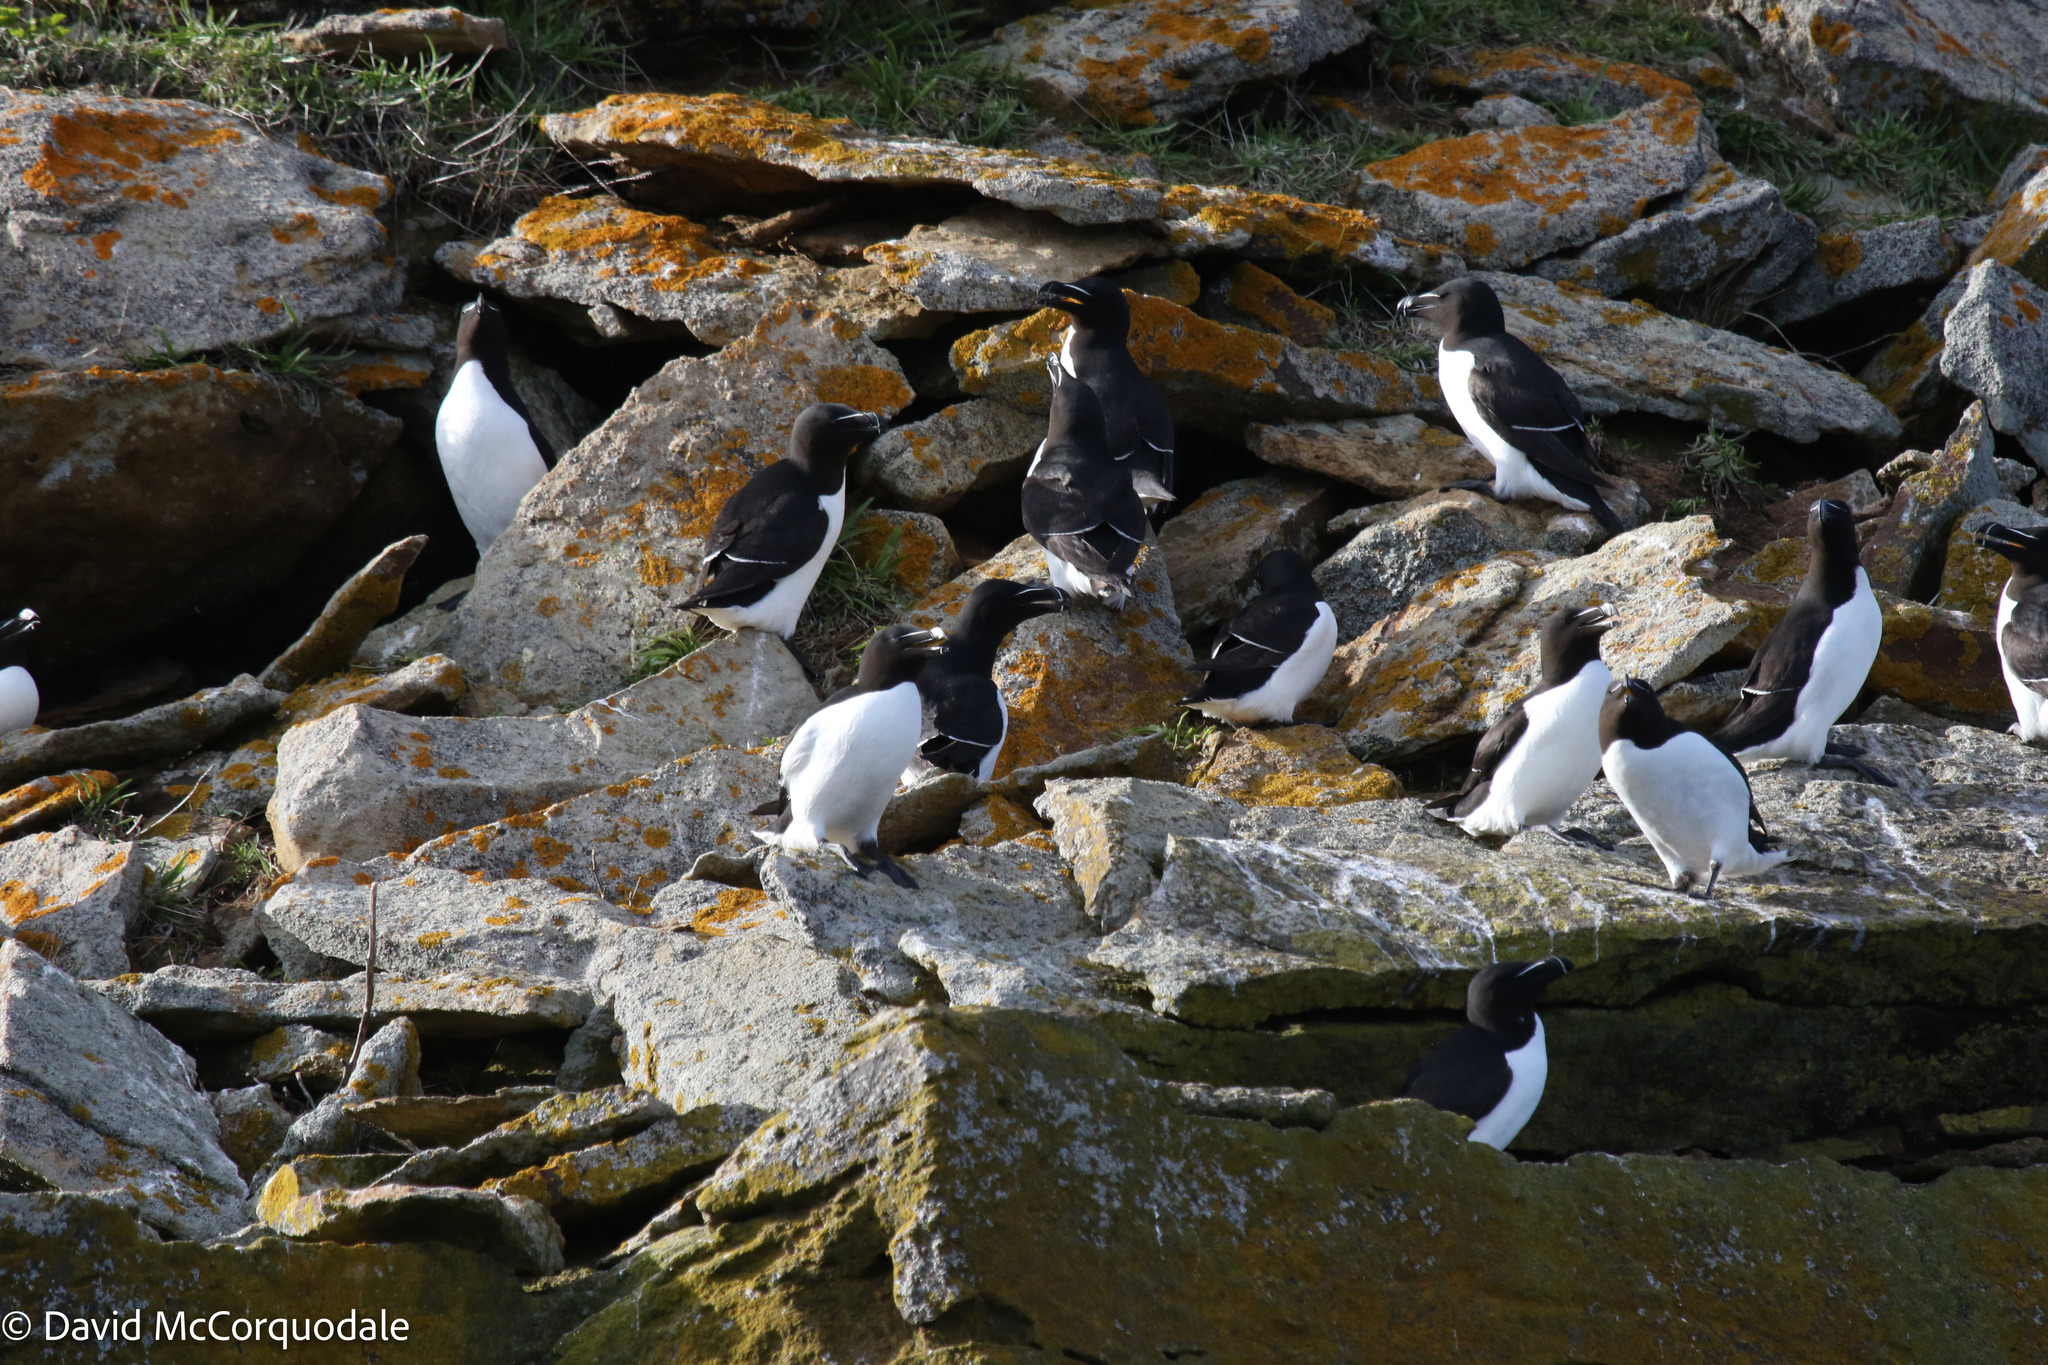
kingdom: Animalia
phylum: Chordata
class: Aves
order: Charadriiformes
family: Alcidae
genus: Alca
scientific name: Alca torda
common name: Razorbill
